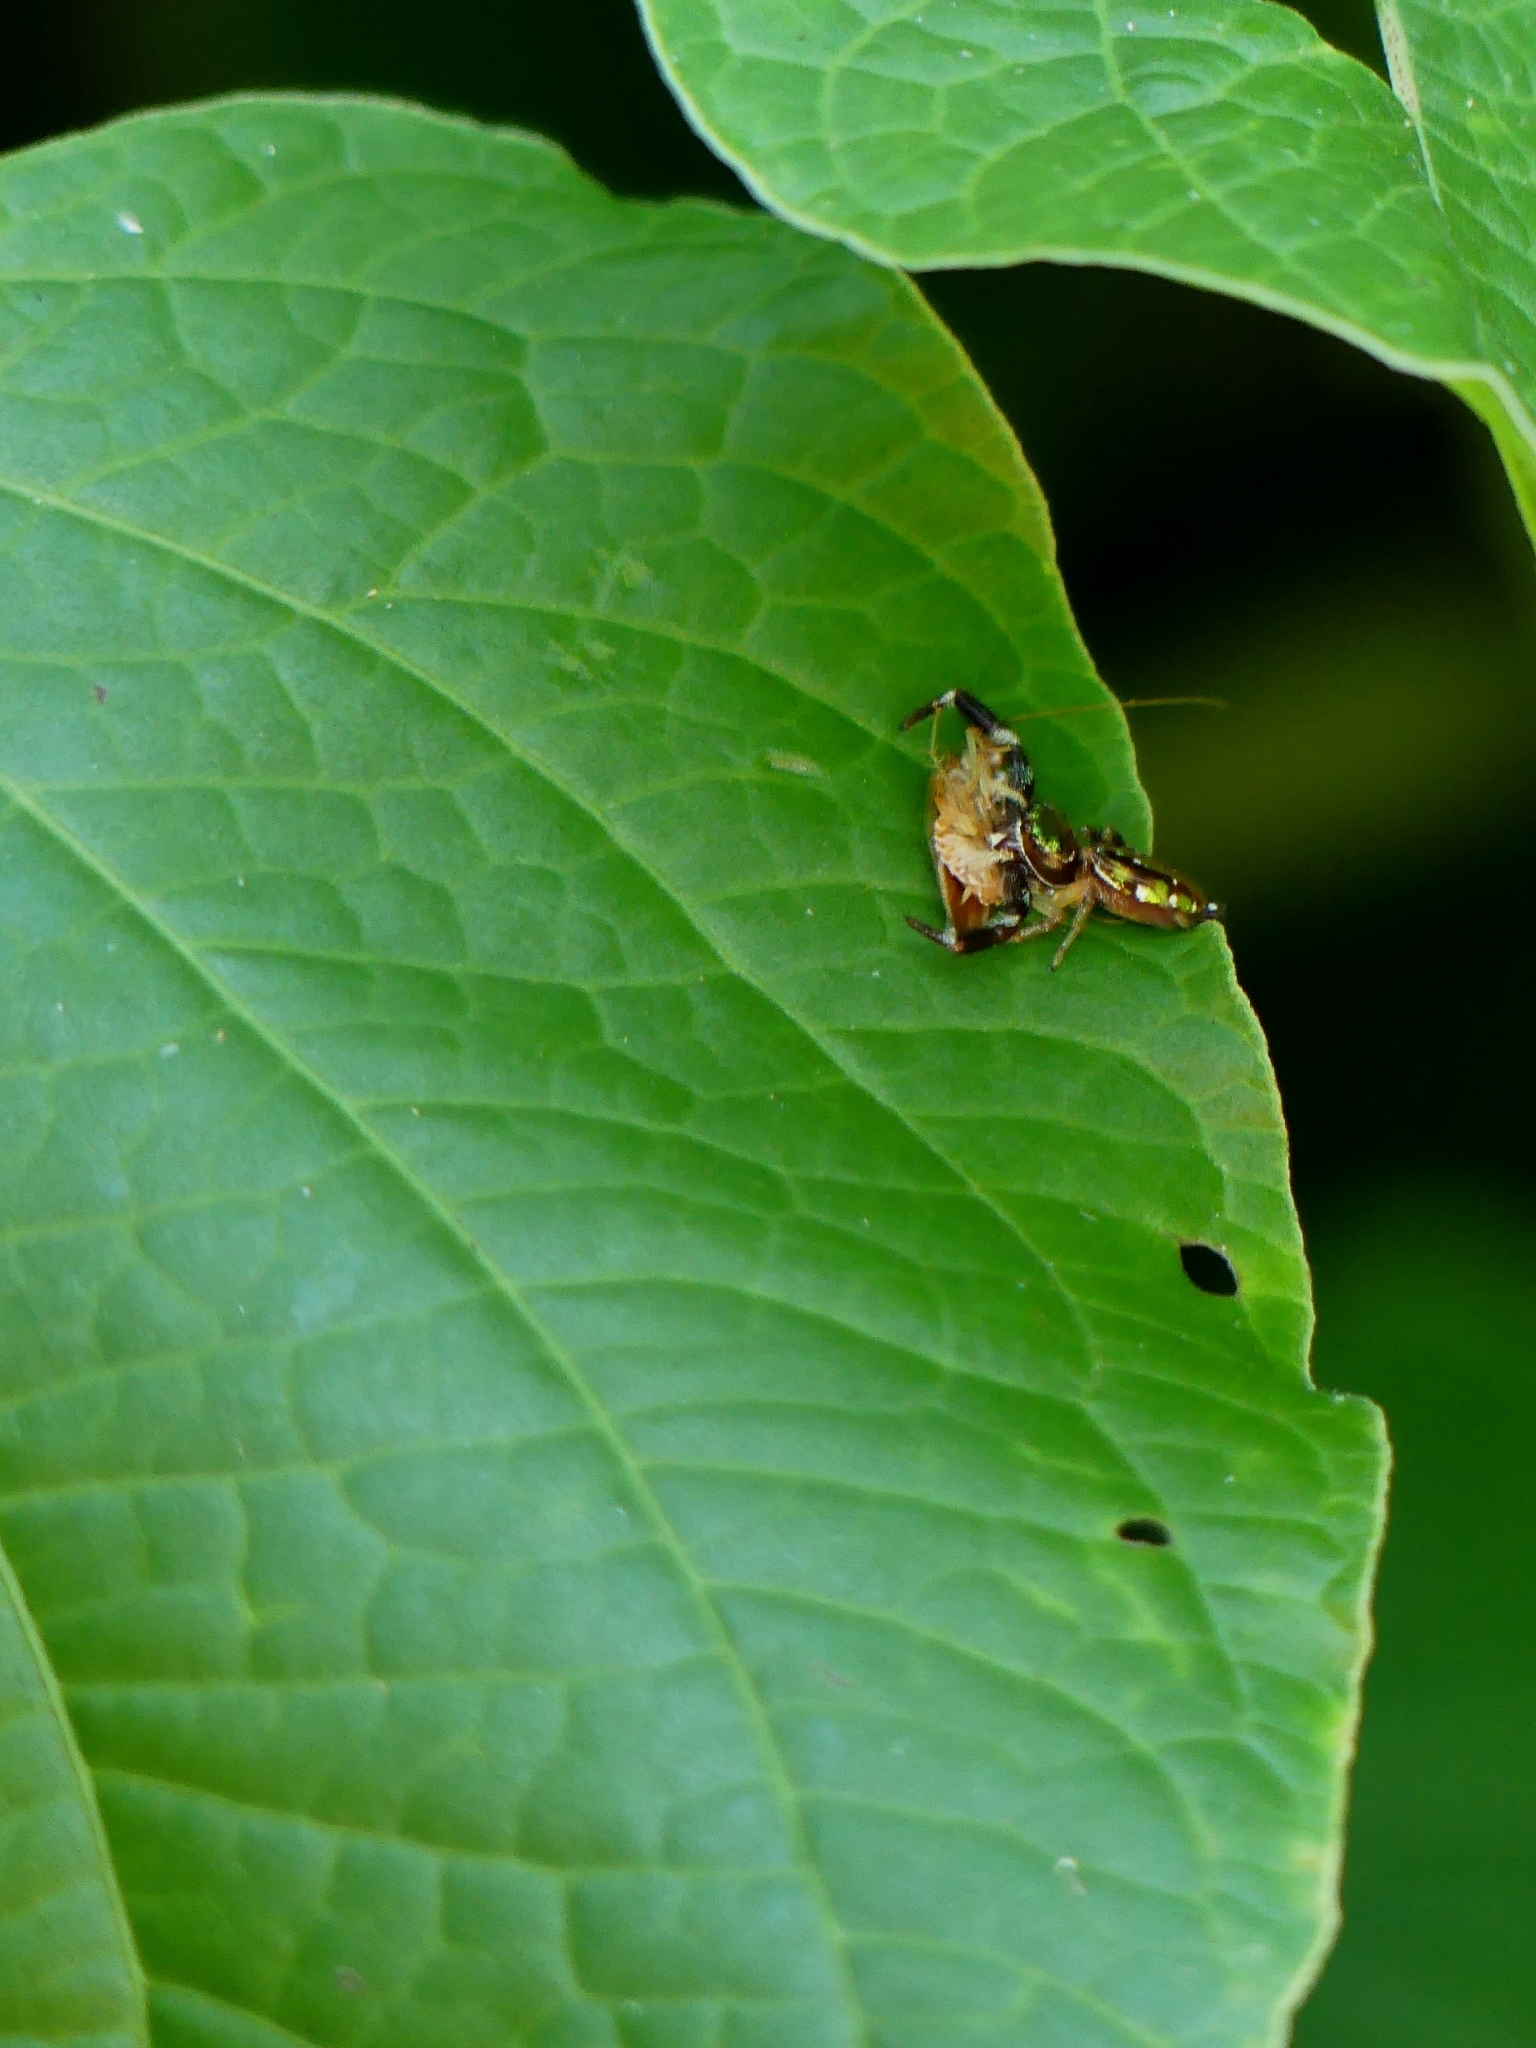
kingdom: Animalia
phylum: Arthropoda
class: Arachnida
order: Araneae
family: Salticidae
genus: Lurio
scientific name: Lurio
